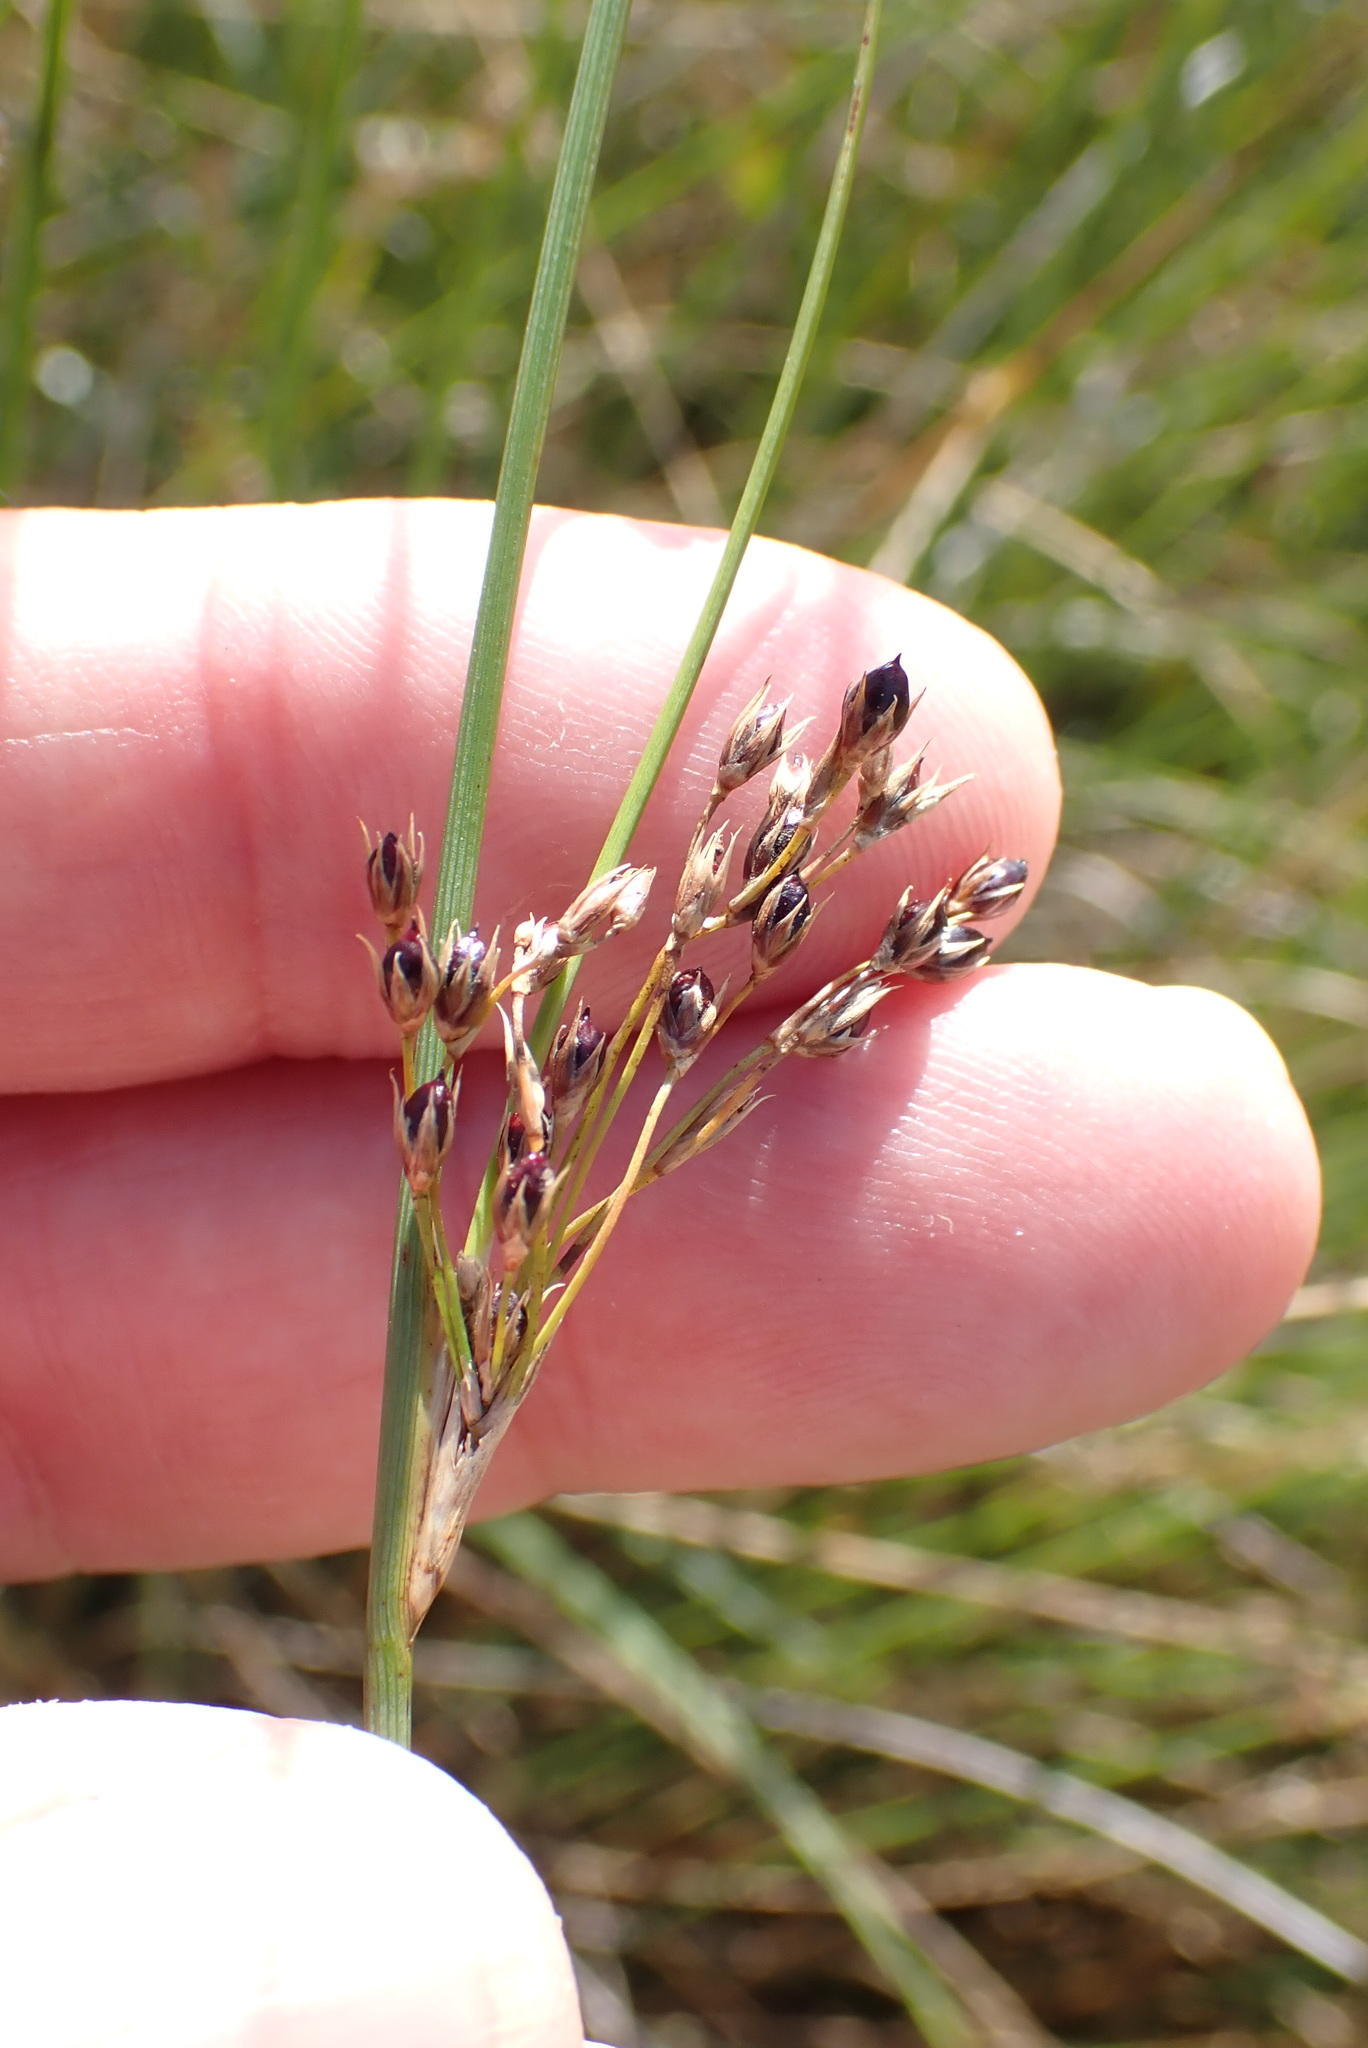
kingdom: Plantae
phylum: Tracheophyta
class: Liliopsida
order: Poales
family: Juncaceae
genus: Juncus
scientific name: Juncus inflexus
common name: Hard rush
